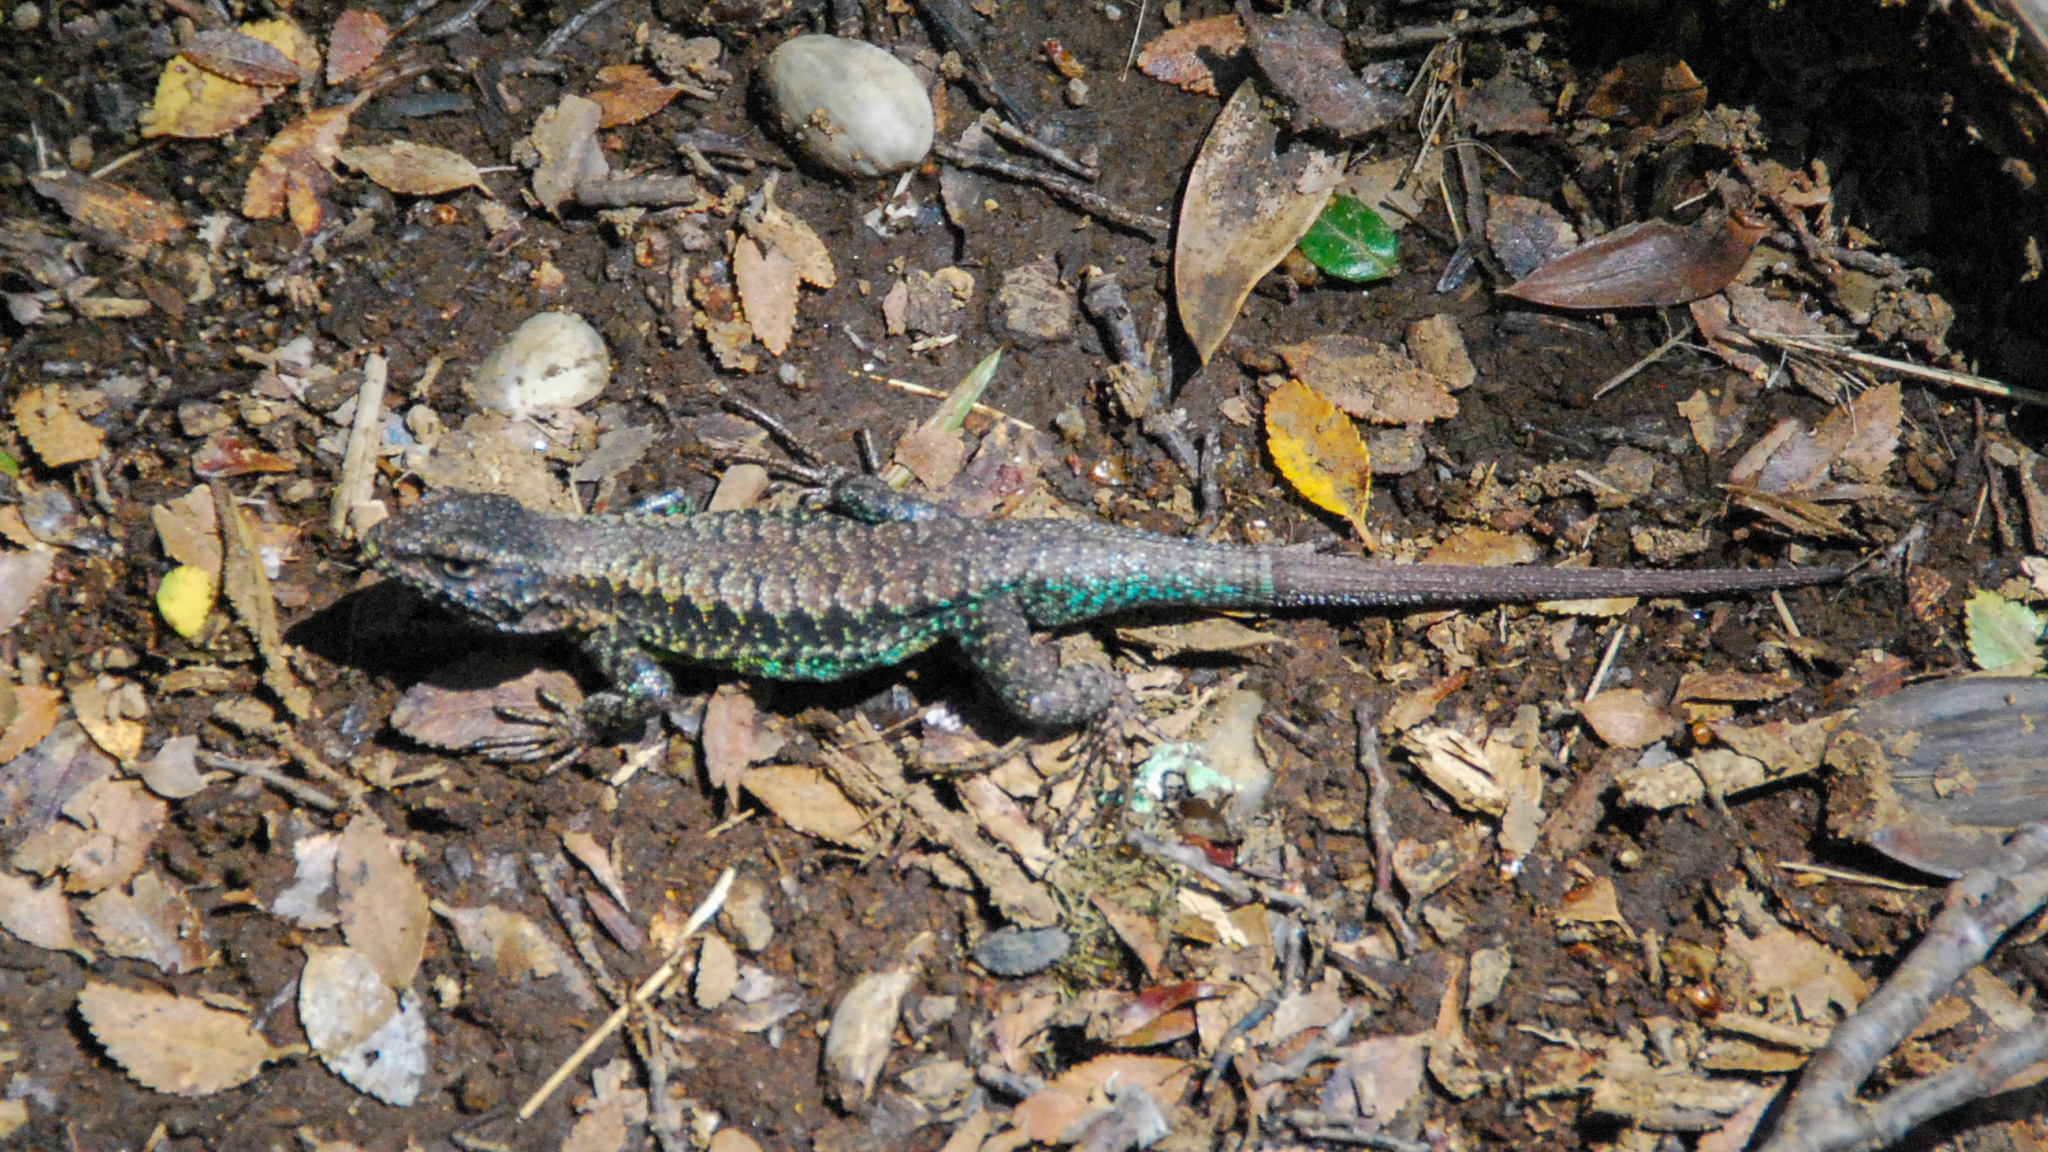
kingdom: Animalia
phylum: Chordata
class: Squamata
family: Liolaemidae
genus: Liolaemus
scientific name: Liolaemus pictus
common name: Painted tree iguana
